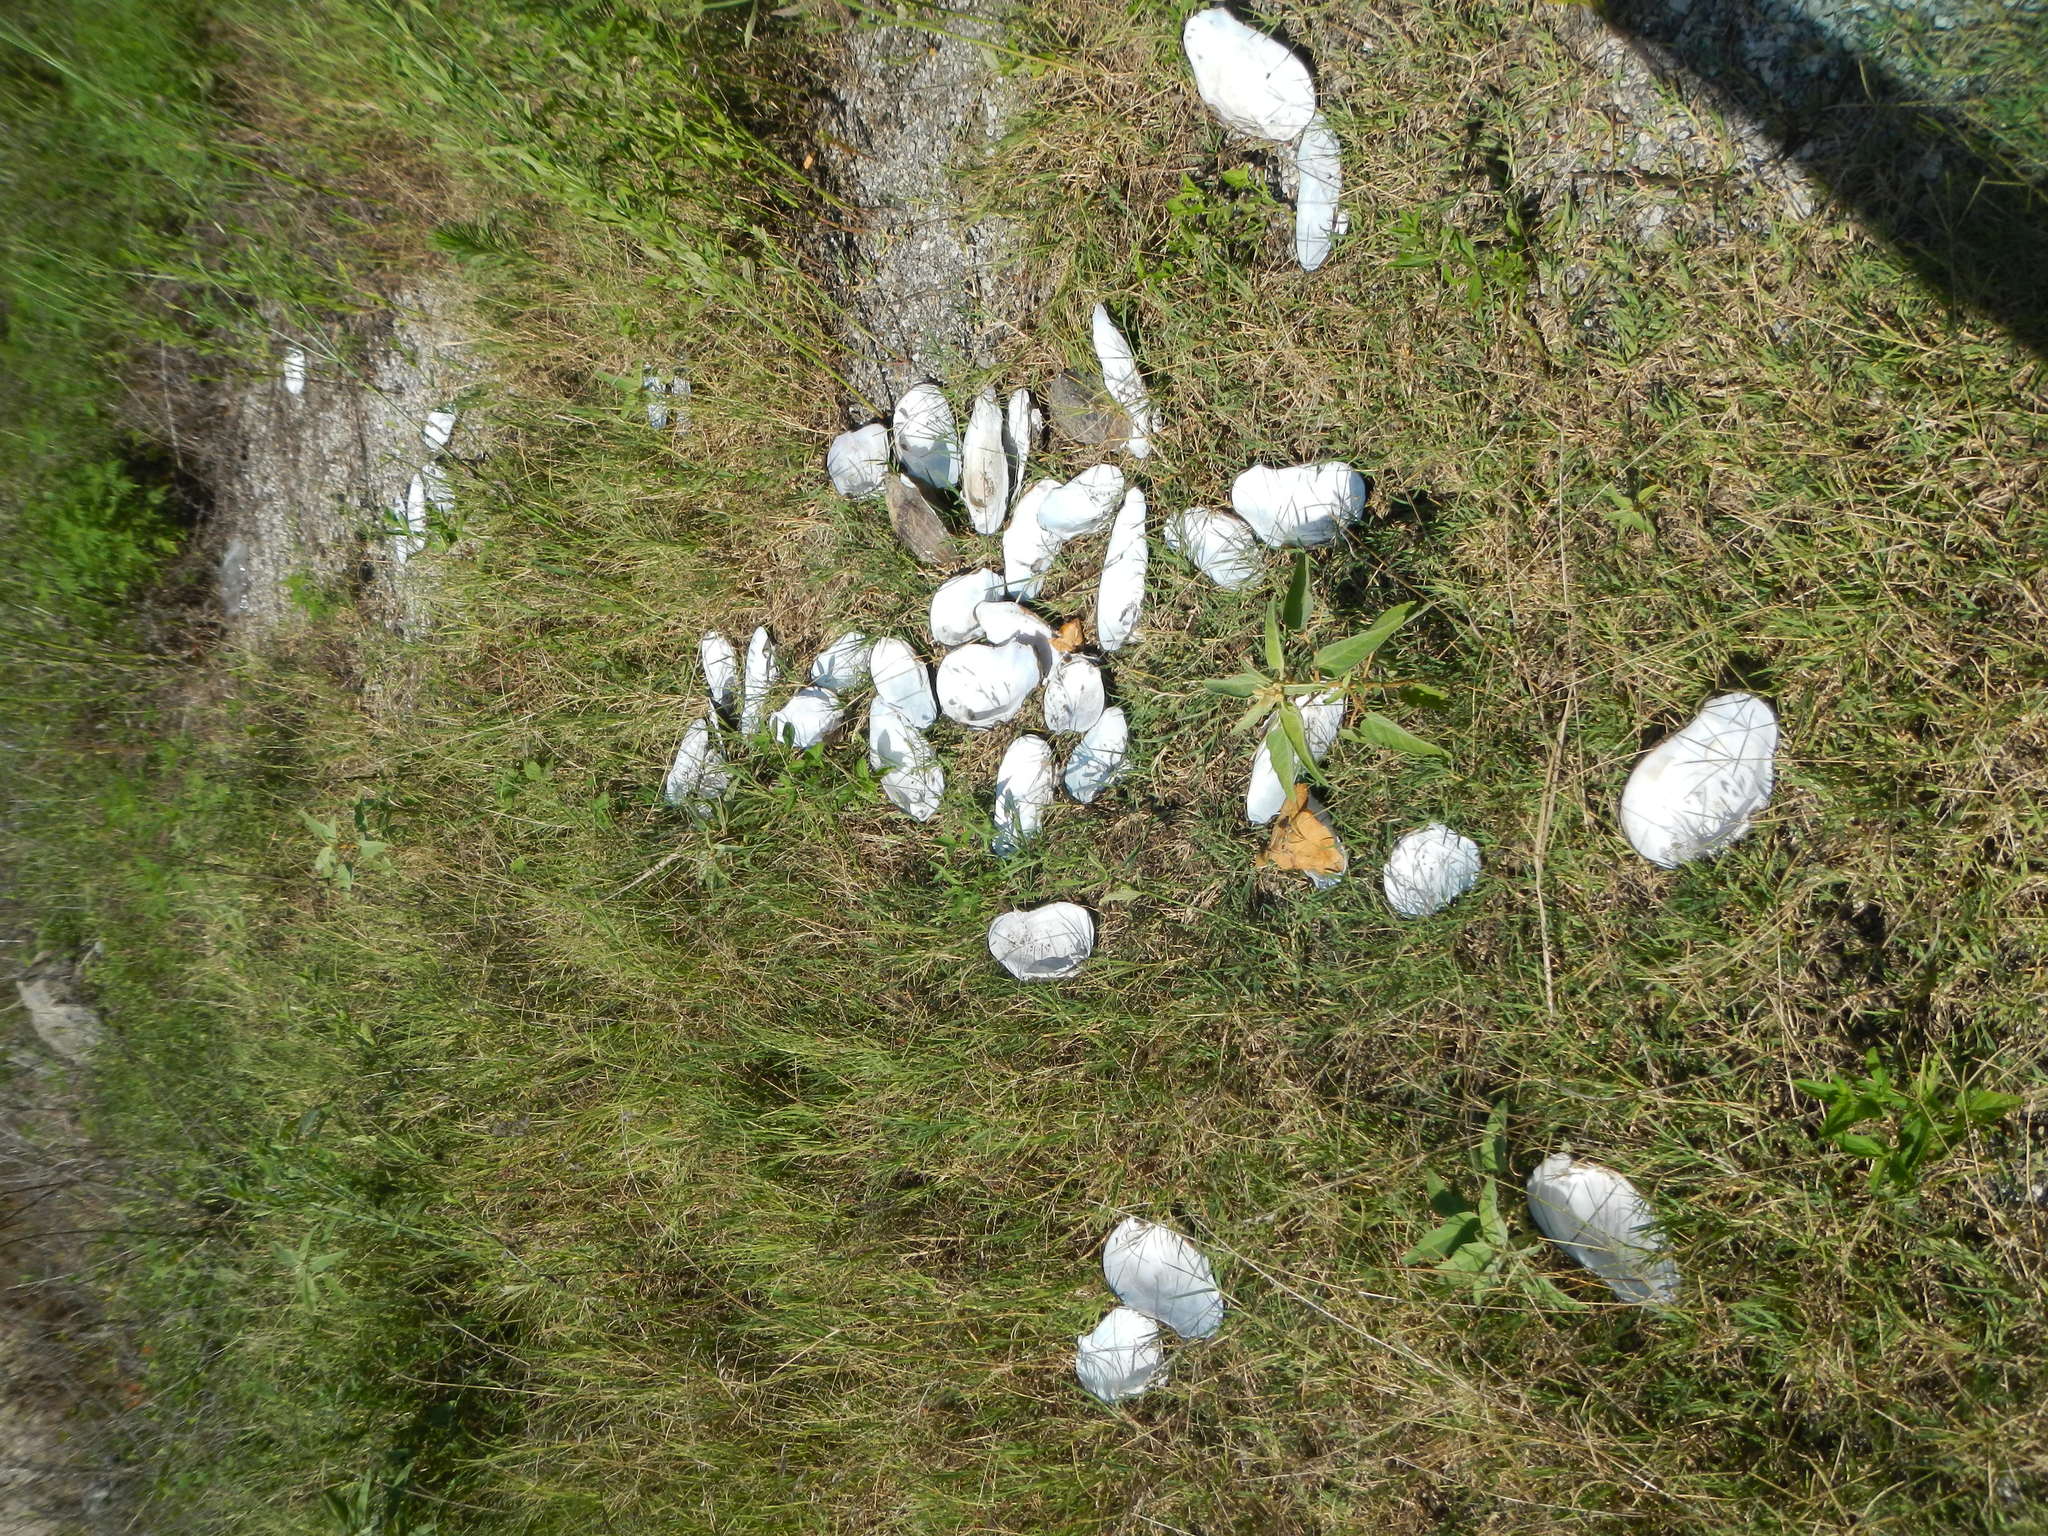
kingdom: Animalia
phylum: Mollusca
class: Bivalvia
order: Unionida
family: Unionidae
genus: Tritogonia
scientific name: Tritogonia verrucosa
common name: Pistolgrip
